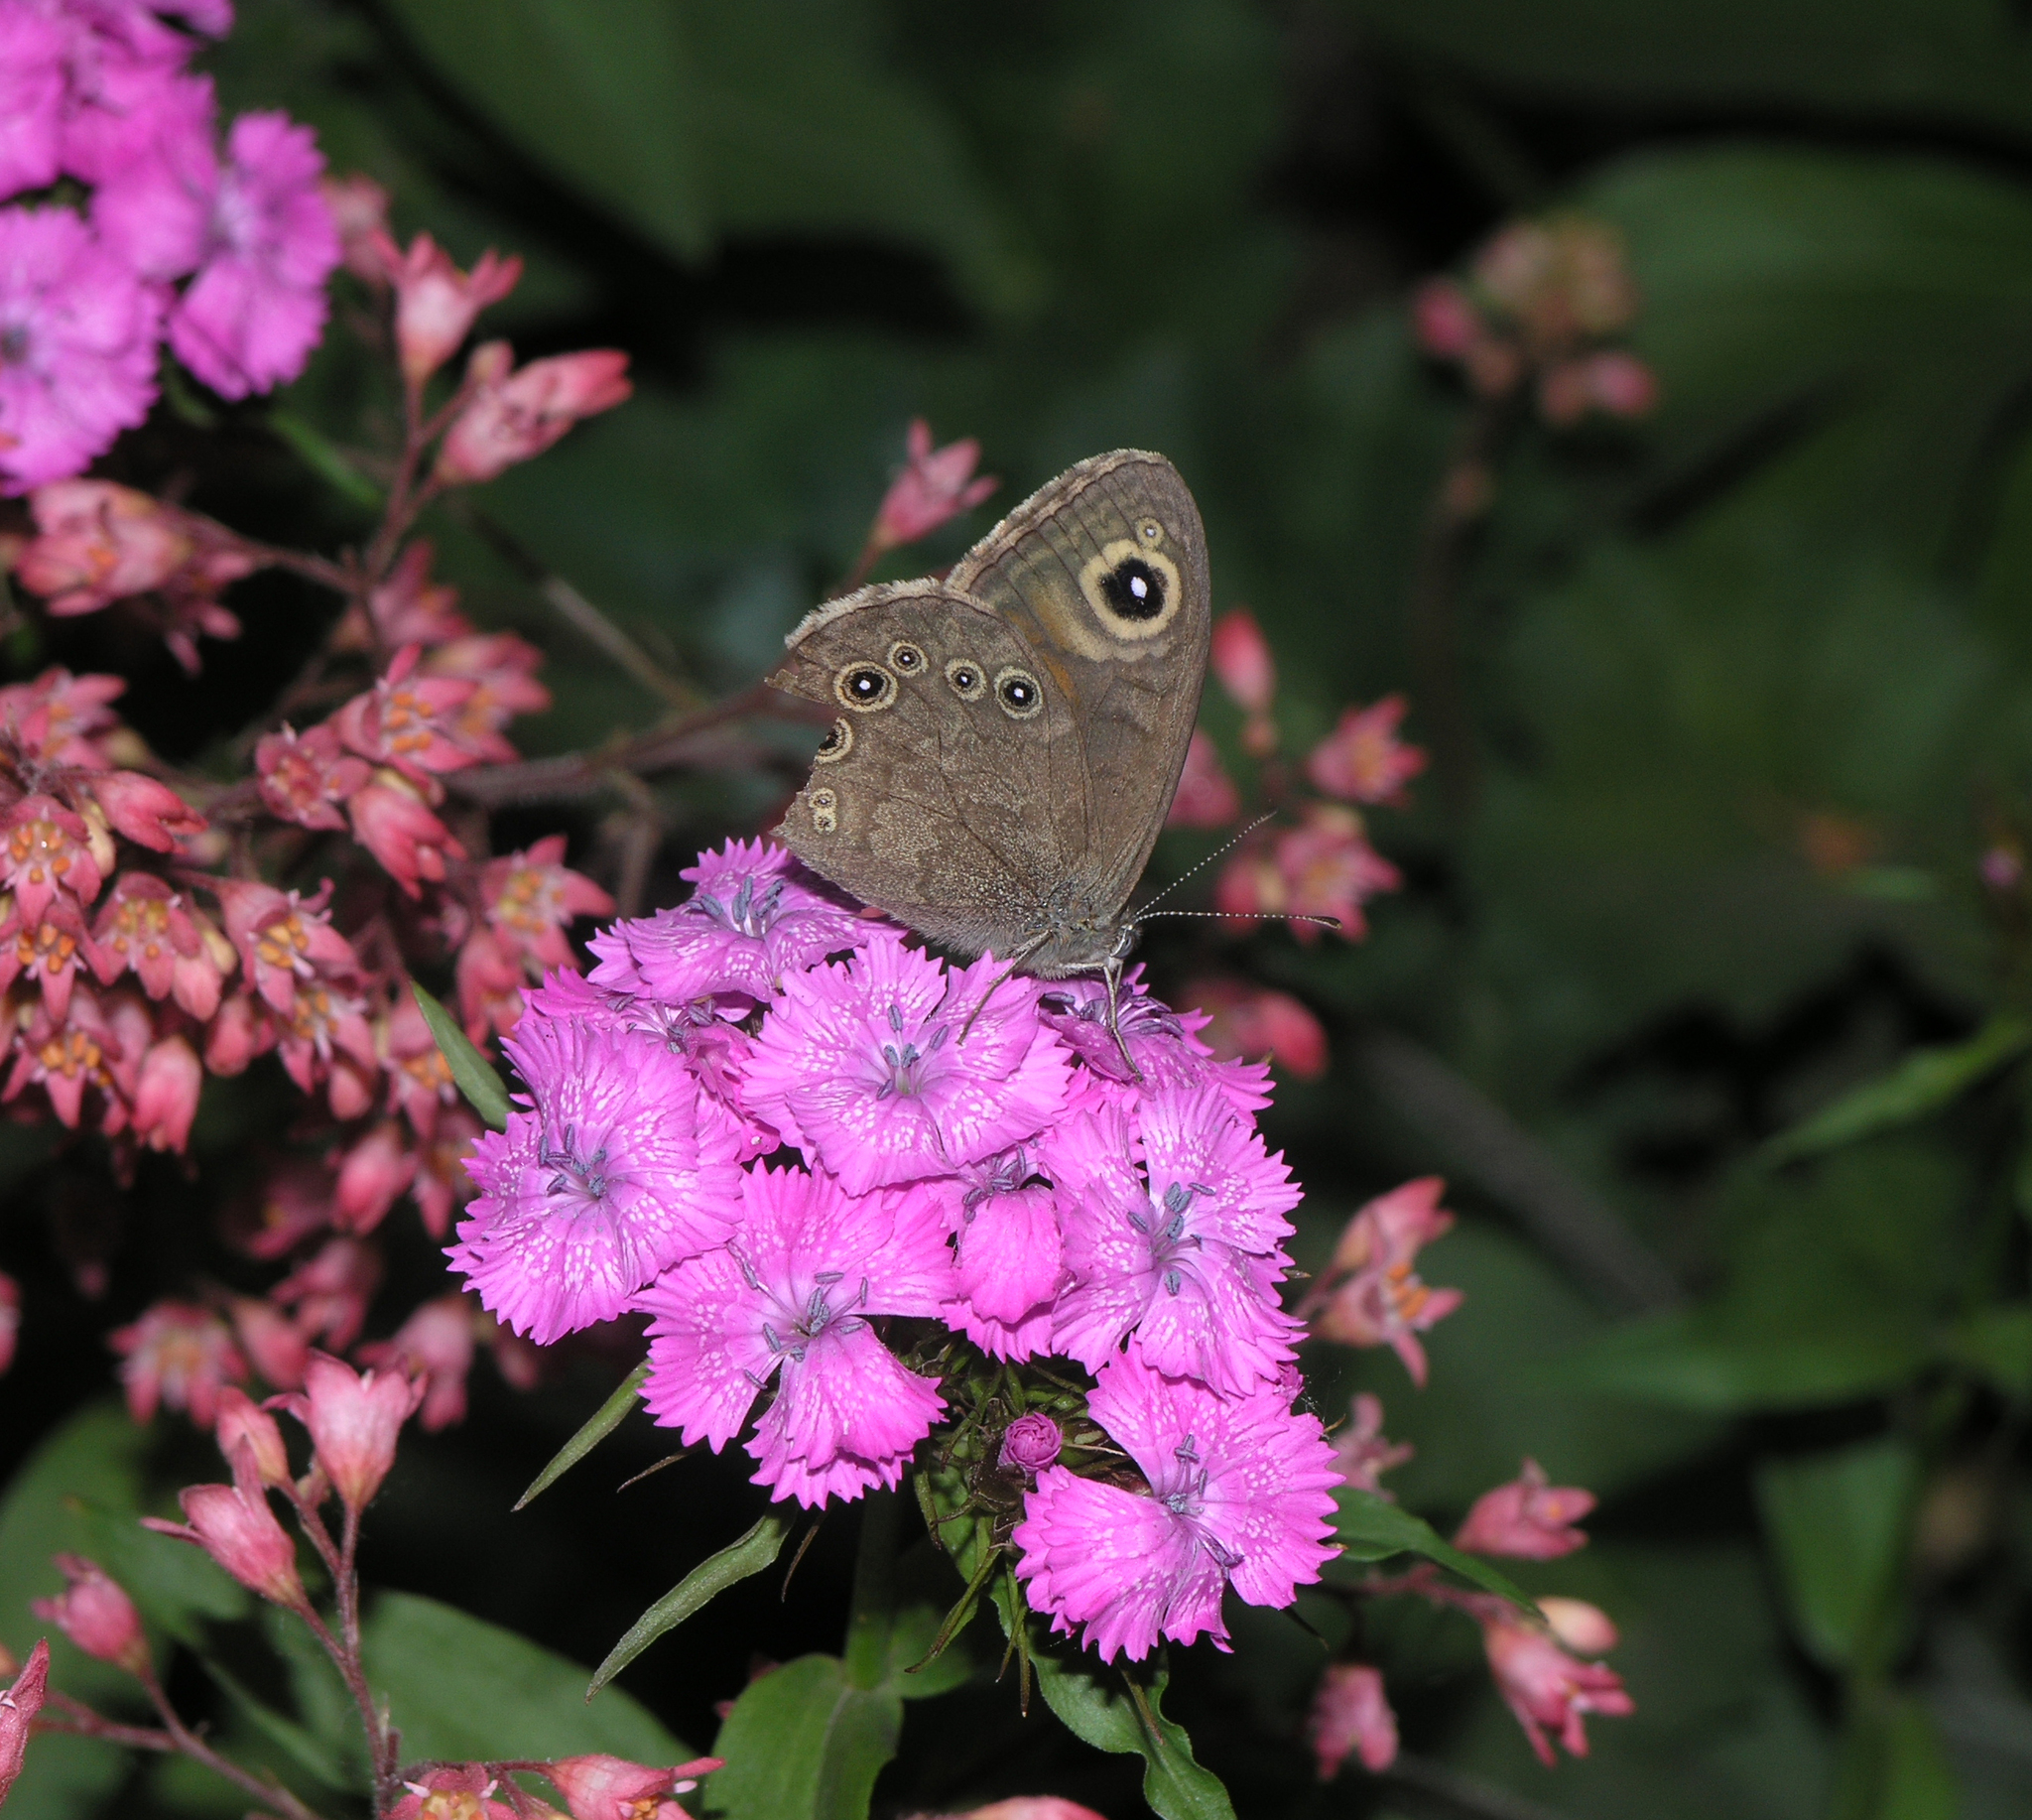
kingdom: Animalia
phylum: Arthropoda
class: Insecta
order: Lepidoptera
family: Nymphalidae
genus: Pararge
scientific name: Pararge petropolitana
